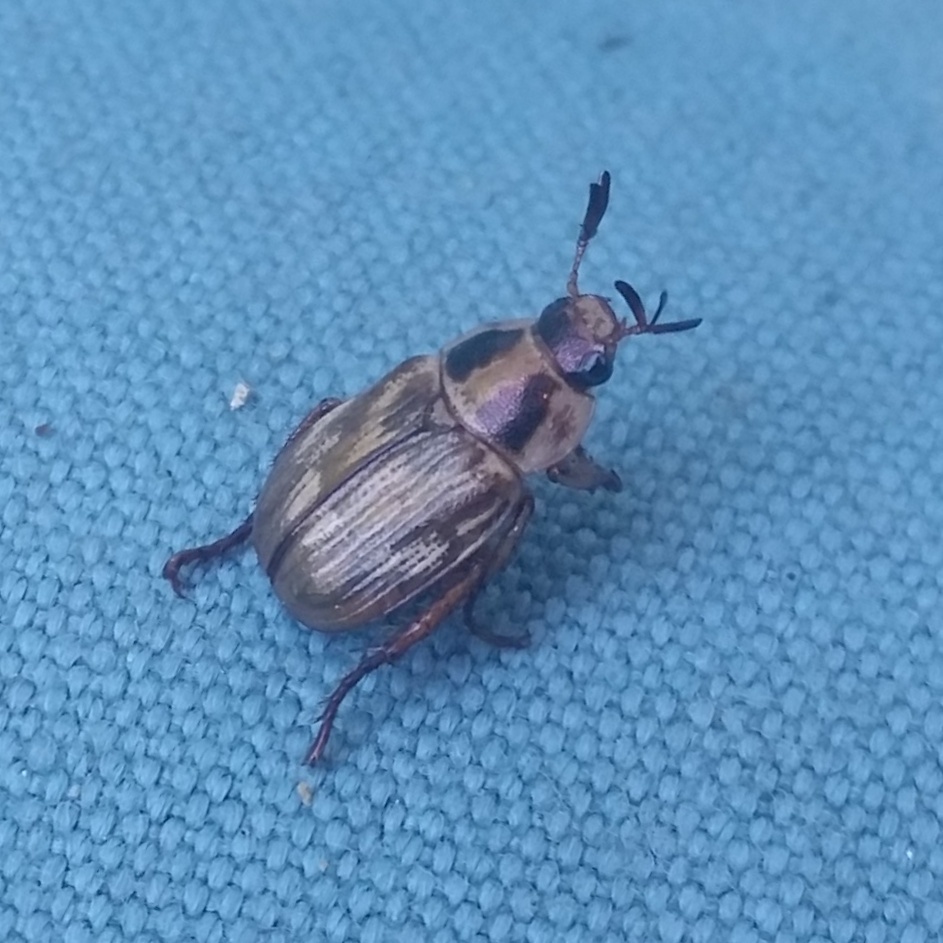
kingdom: Animalia
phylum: Arthropoda
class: Insecta
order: Coleoptera
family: Scarabaeidae
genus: Exomala
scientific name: Exomala orientalis
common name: Oriental beetle
